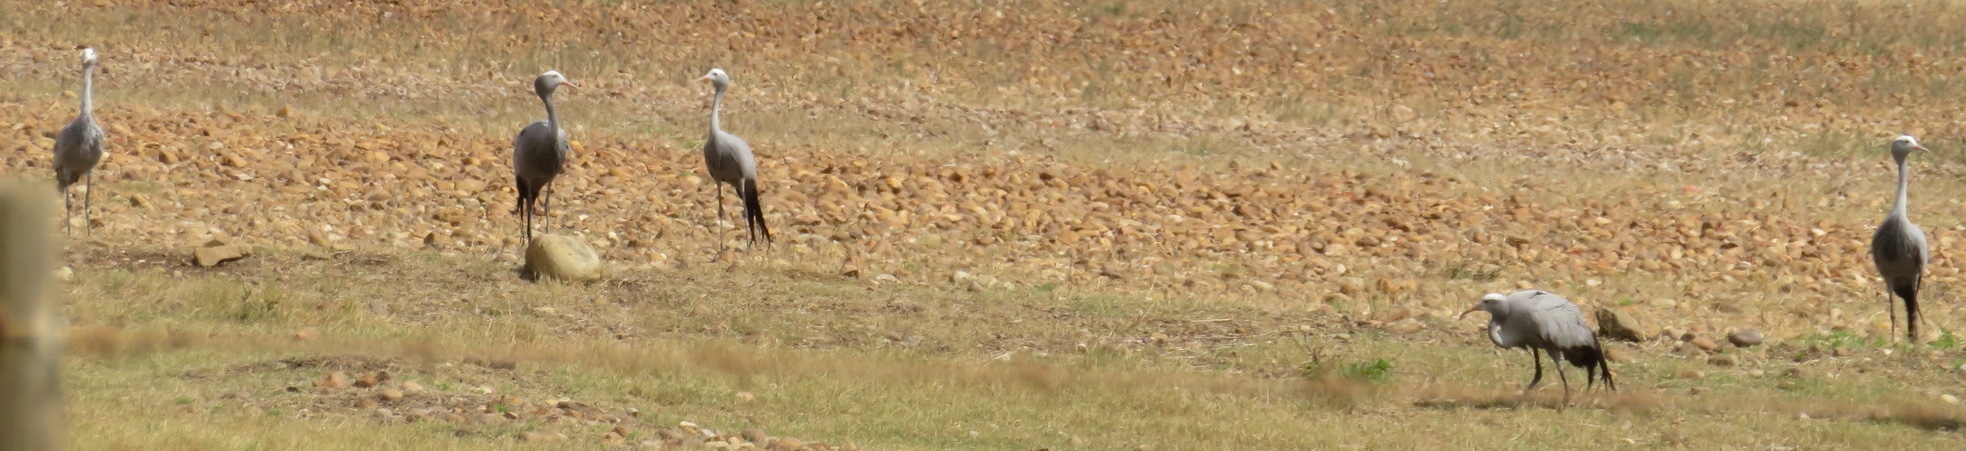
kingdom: Animalia
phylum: Chordata
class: Aves
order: Gruiformes
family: Gruidae
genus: Anthropoides
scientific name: Anthropoides paradiseus
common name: Blue crane
